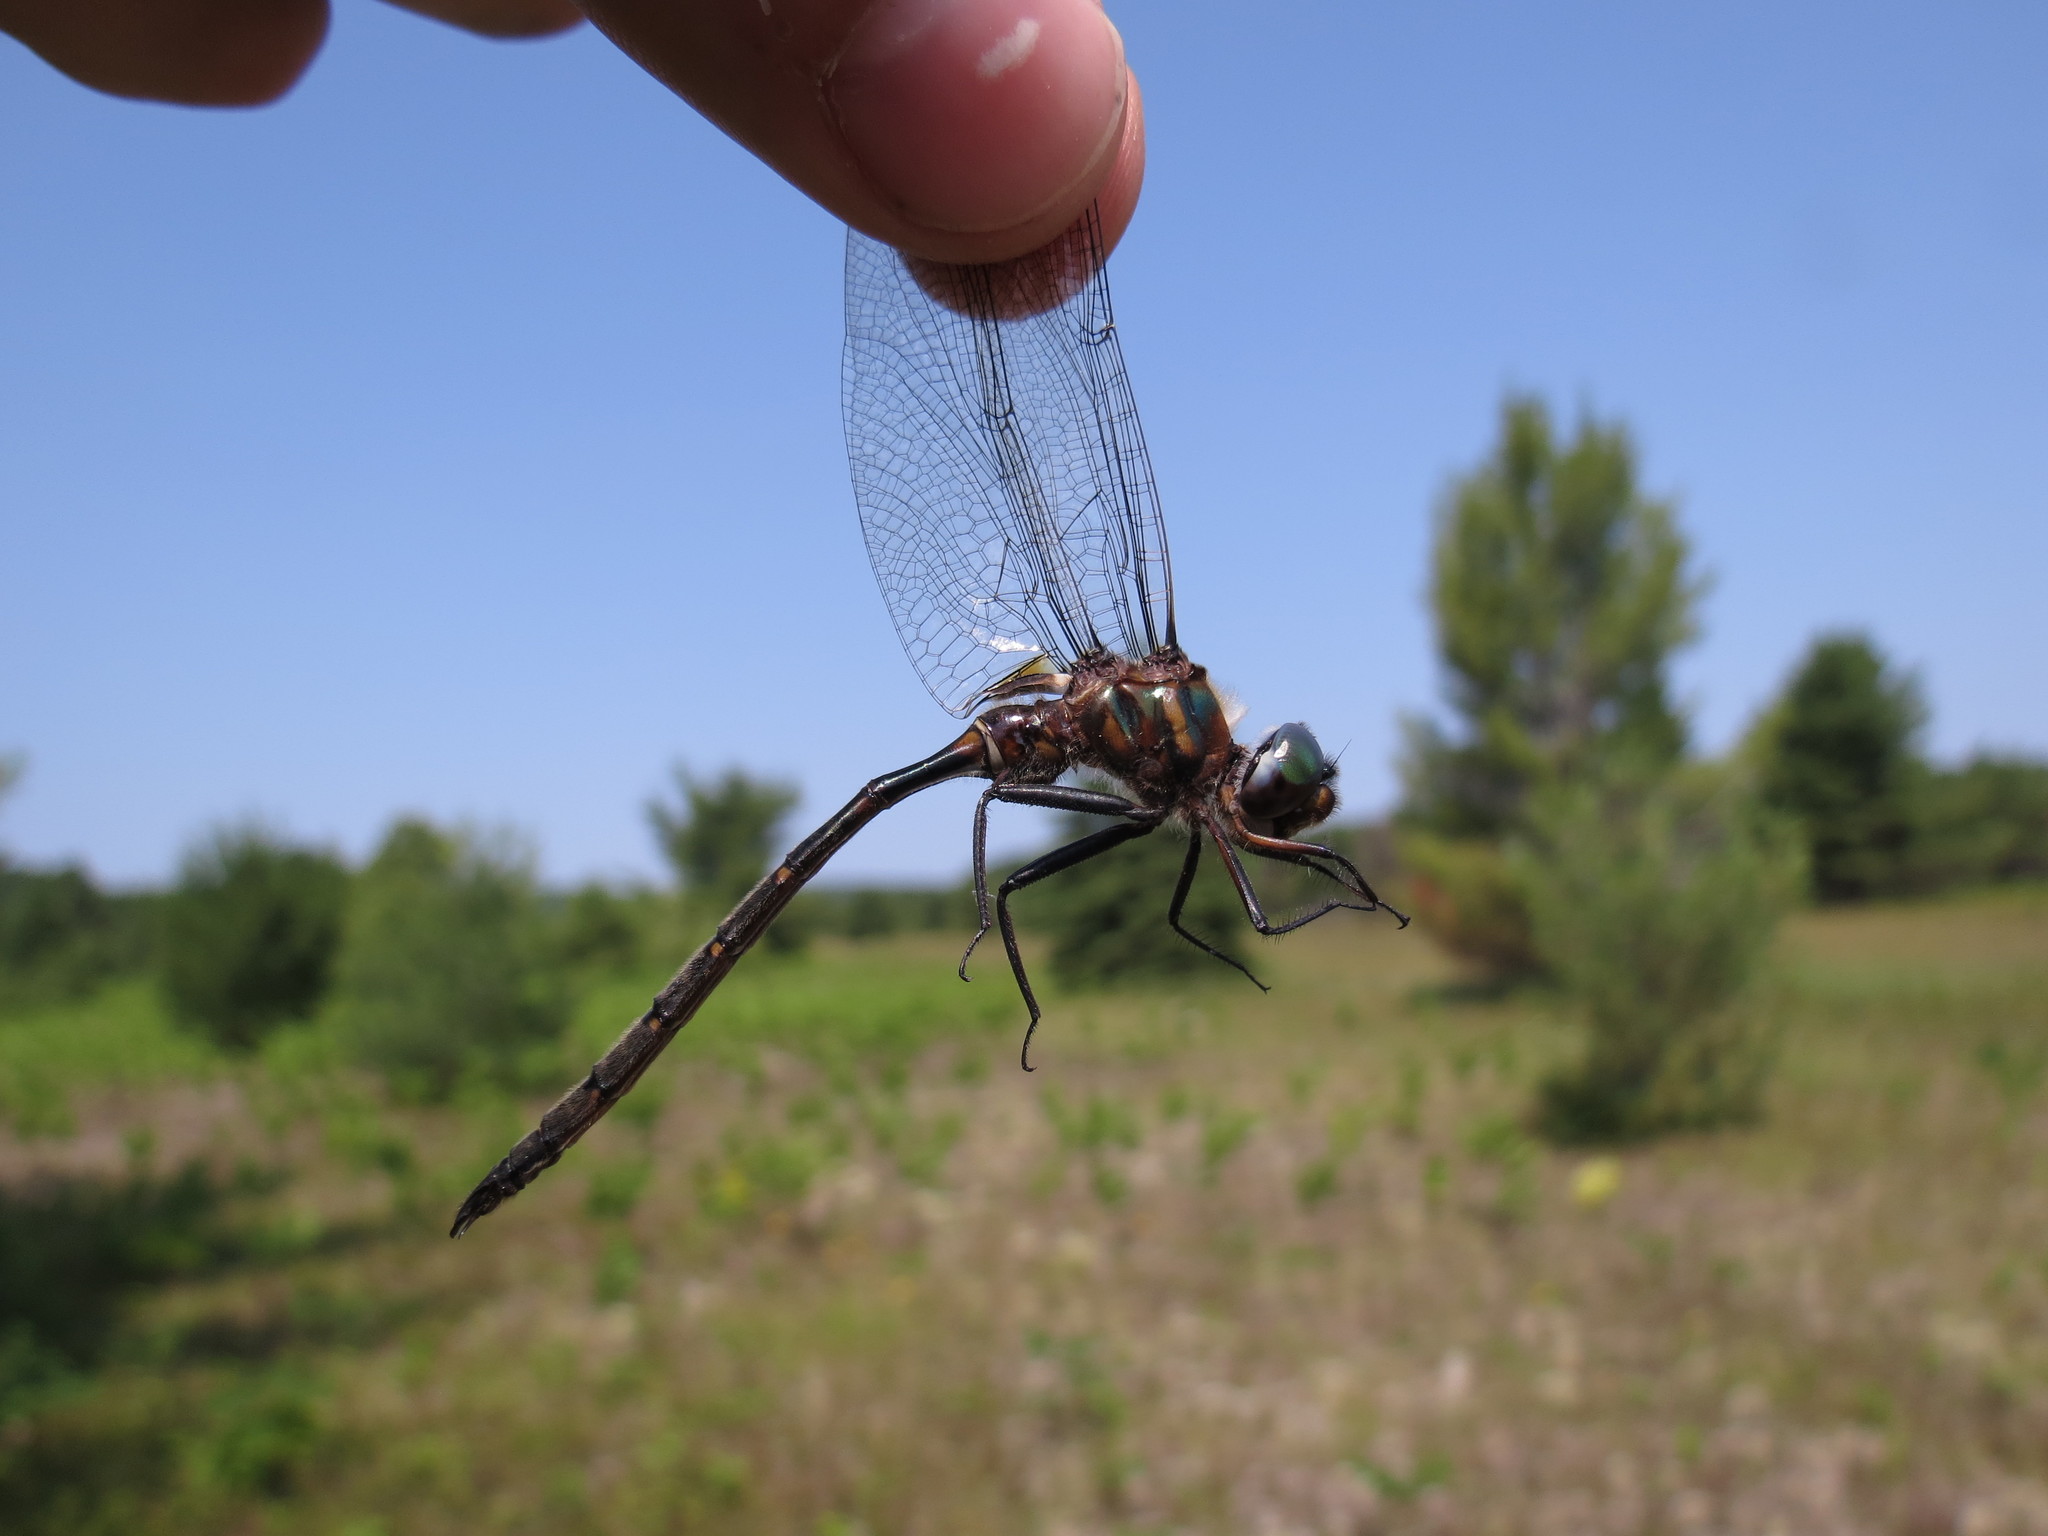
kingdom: Animalia
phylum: Arthropoda
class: Insecta
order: Odonata
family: Corduliidae
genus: Somatochlora
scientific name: Somatochlora incurvata
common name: Incurvate emerald
